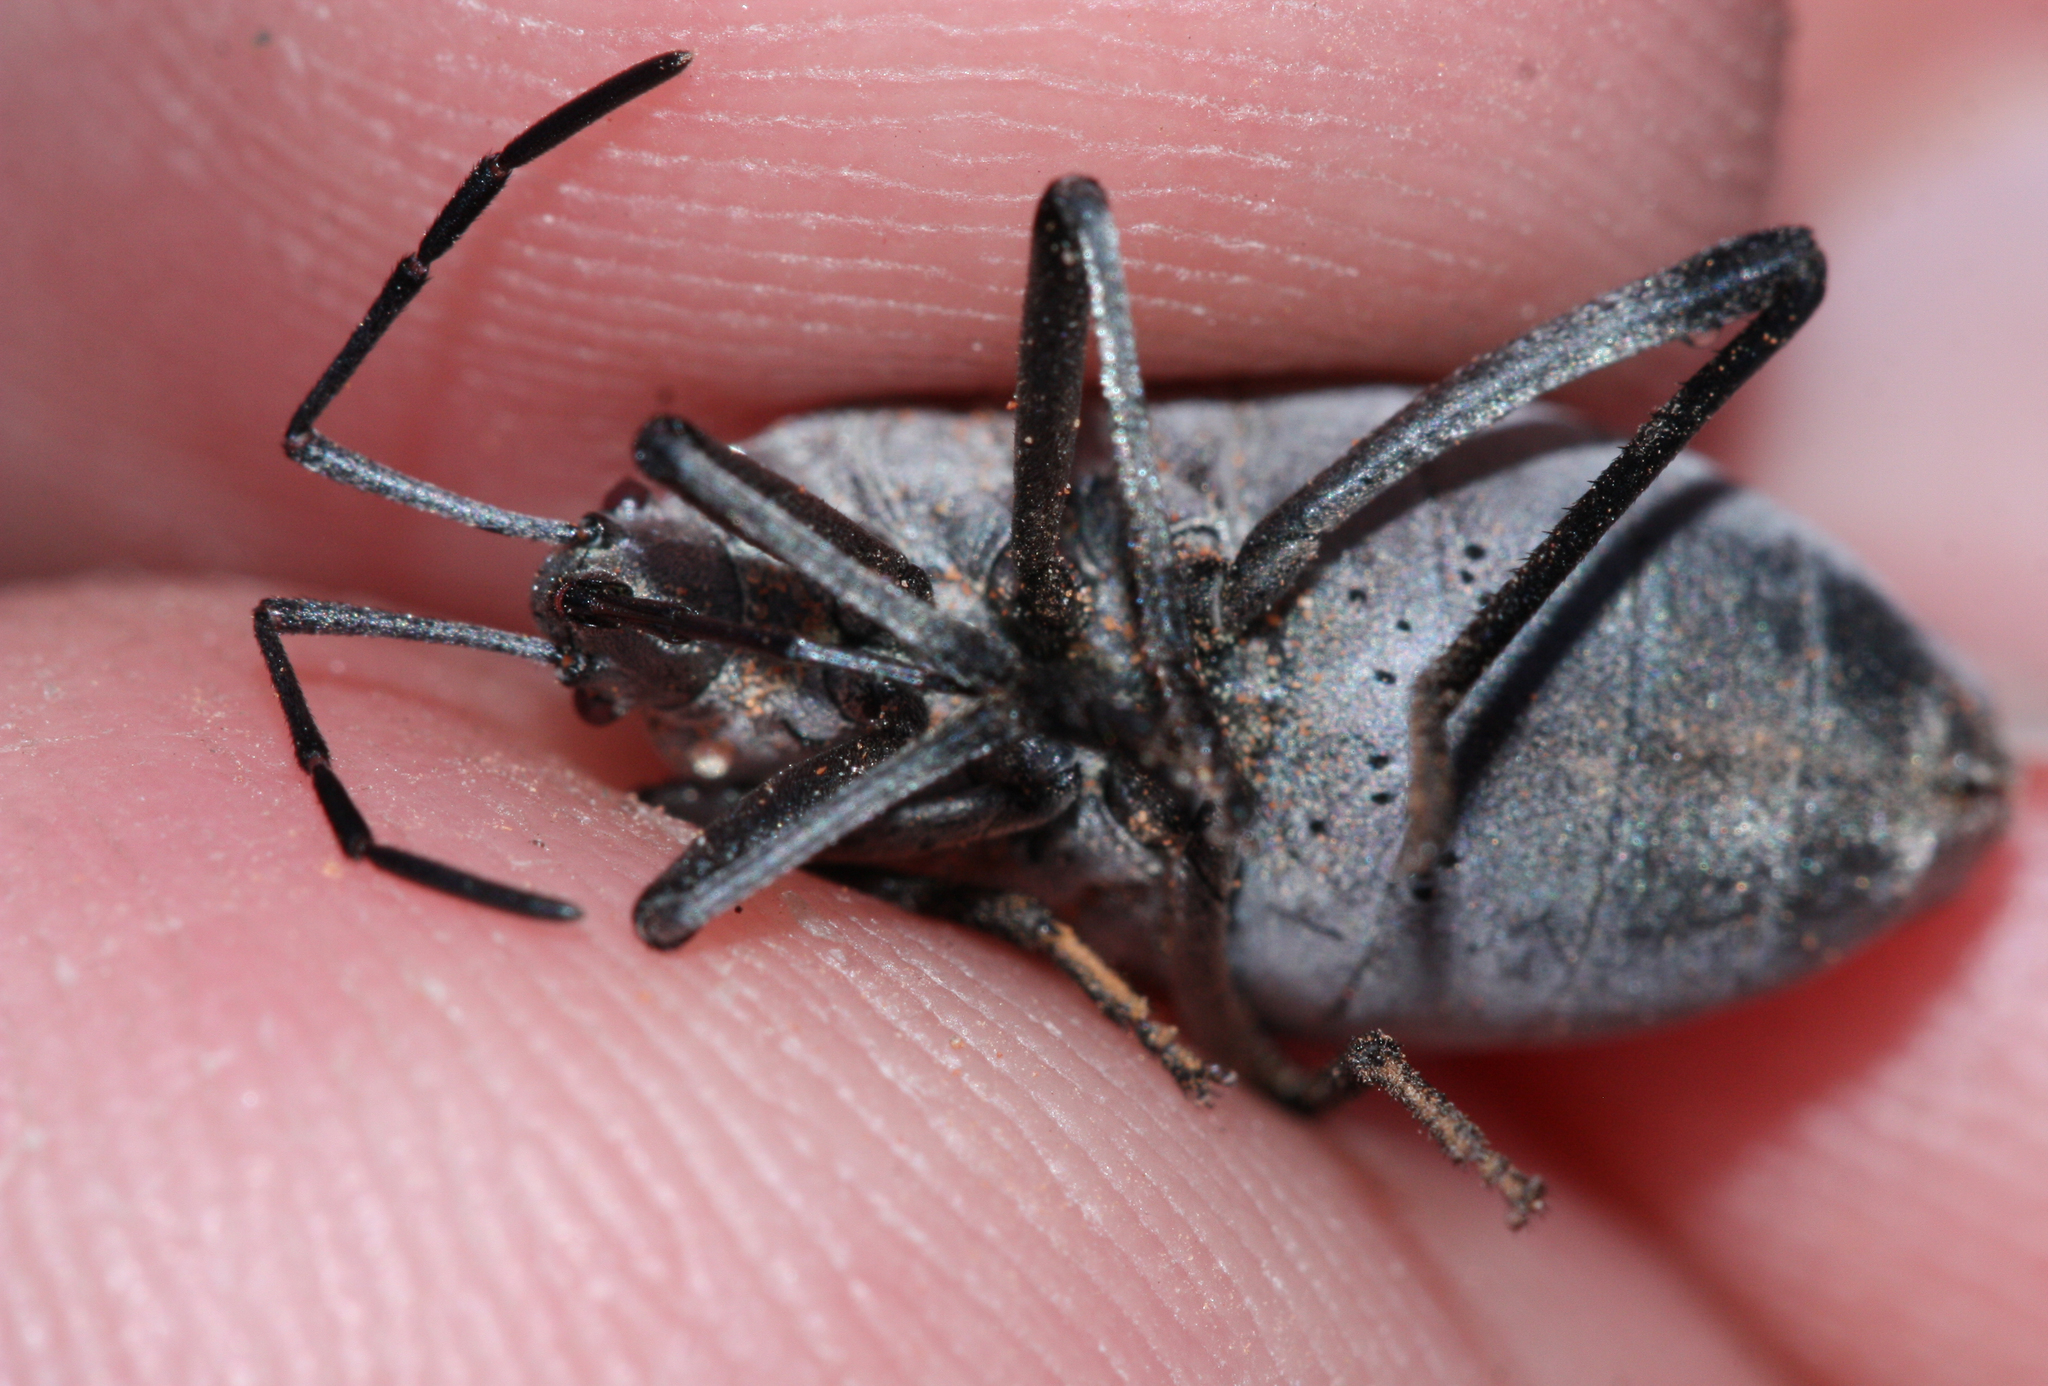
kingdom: Animalia
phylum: Arthropoda
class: Insecta
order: Hemiptera
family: Largidae
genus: Largus
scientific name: Largus semipunctatus
